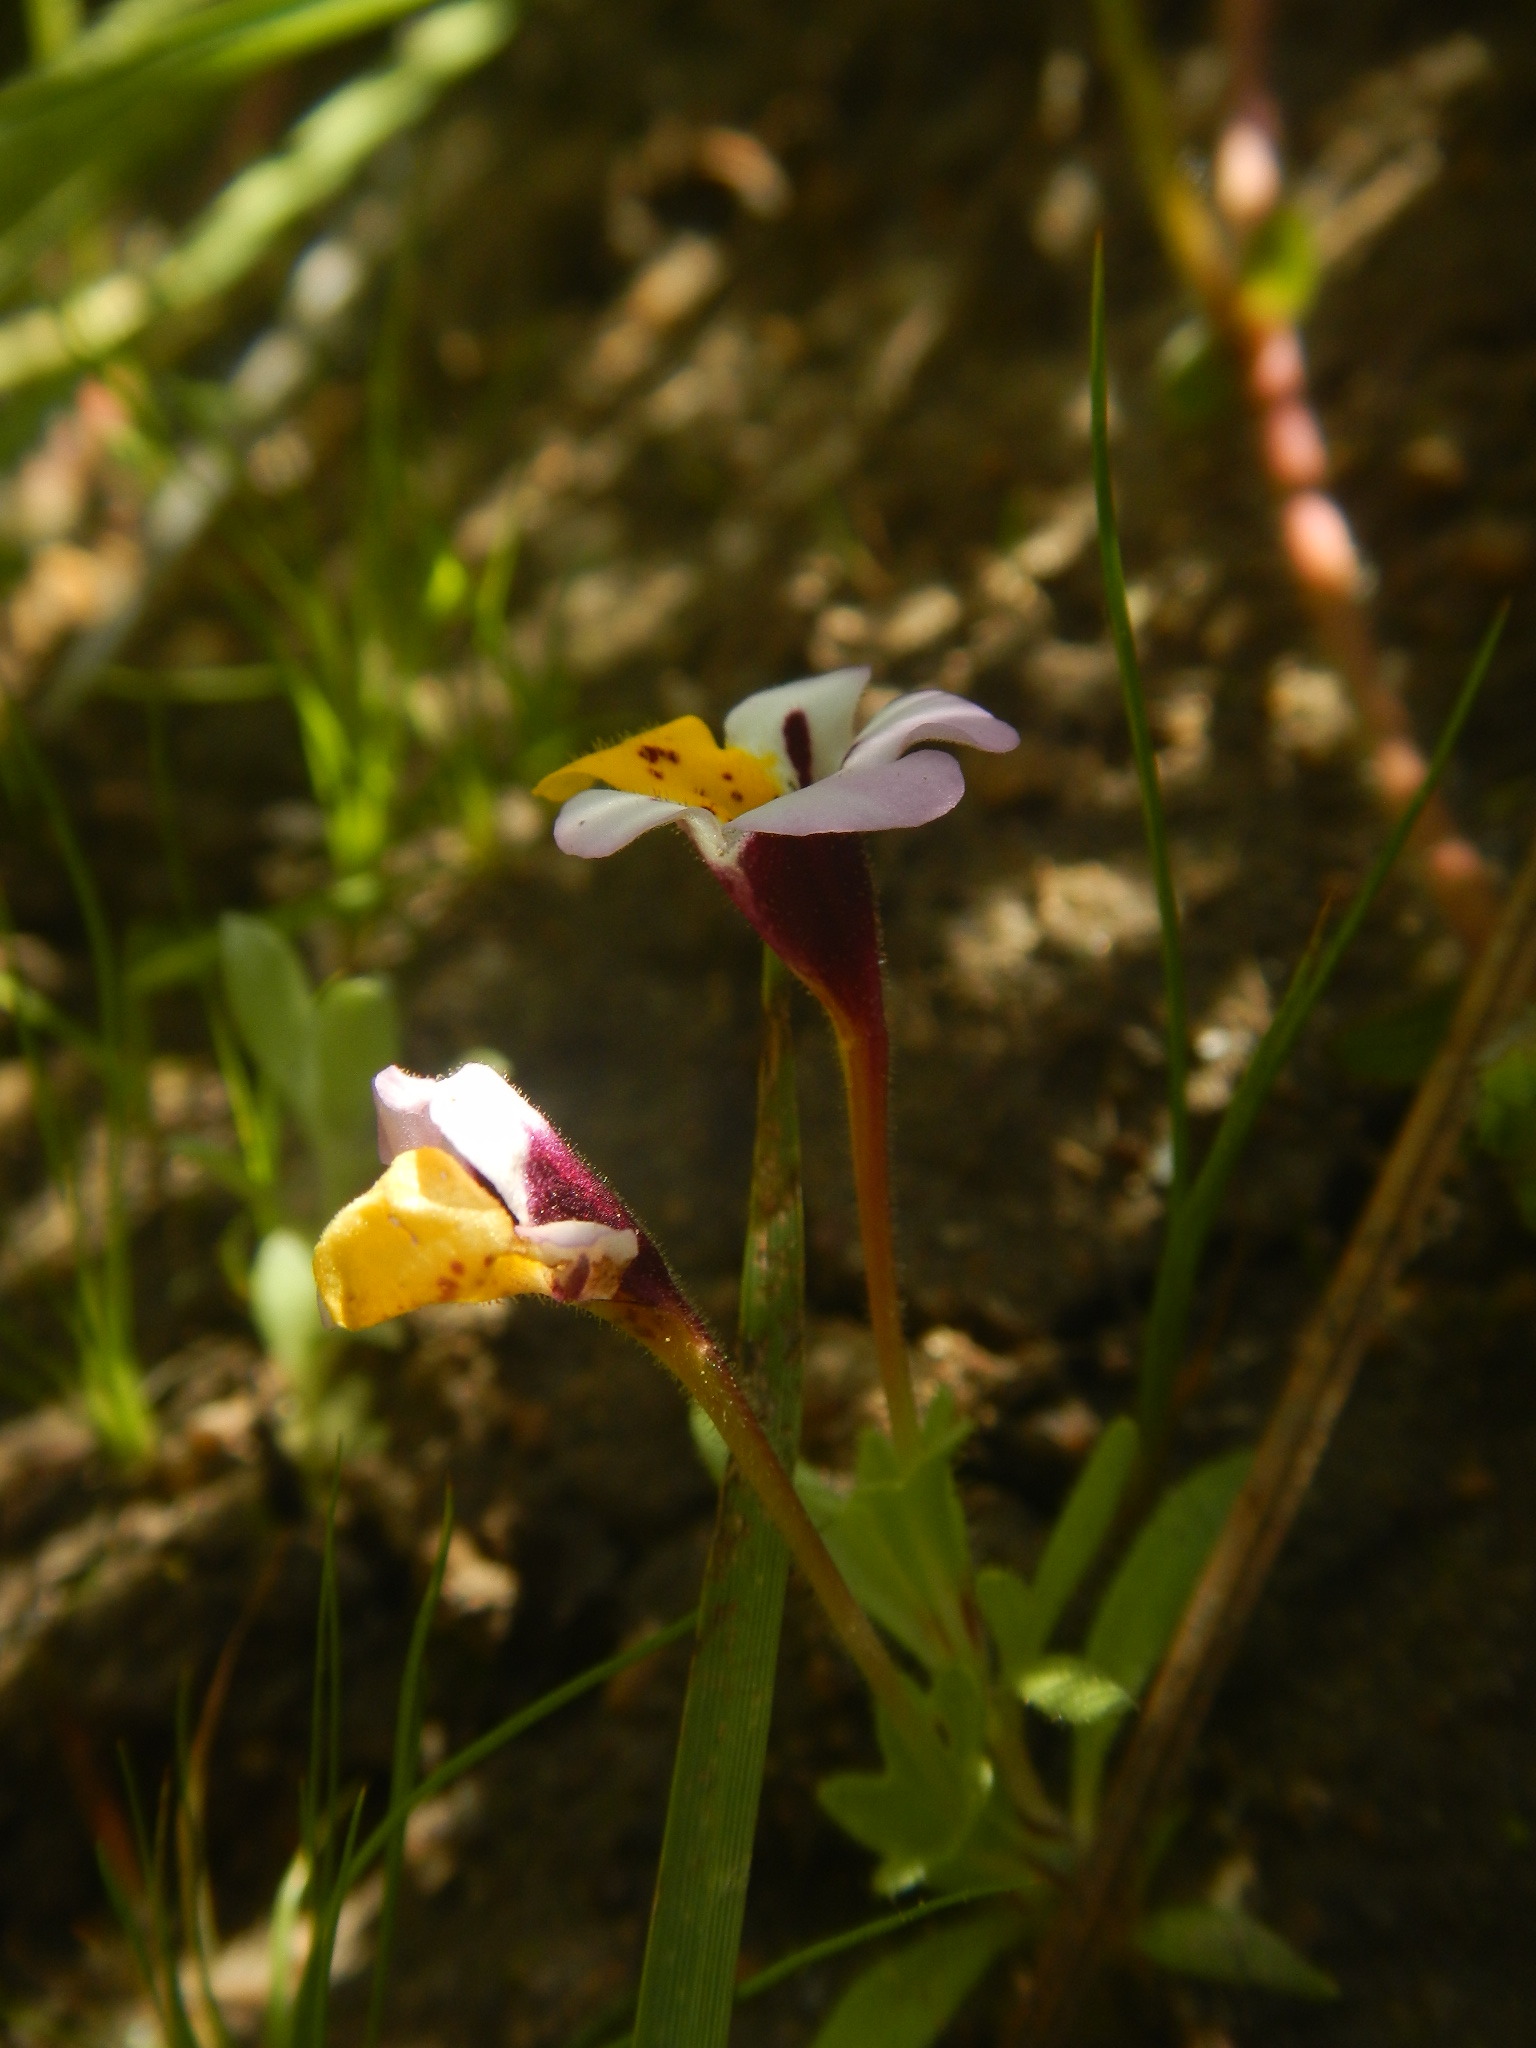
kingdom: Plantae
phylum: Tracheophyta
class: Magnoliopsida
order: Lamiales
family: Phrymaceae
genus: Diplacus
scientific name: Diplacus pulchellus
